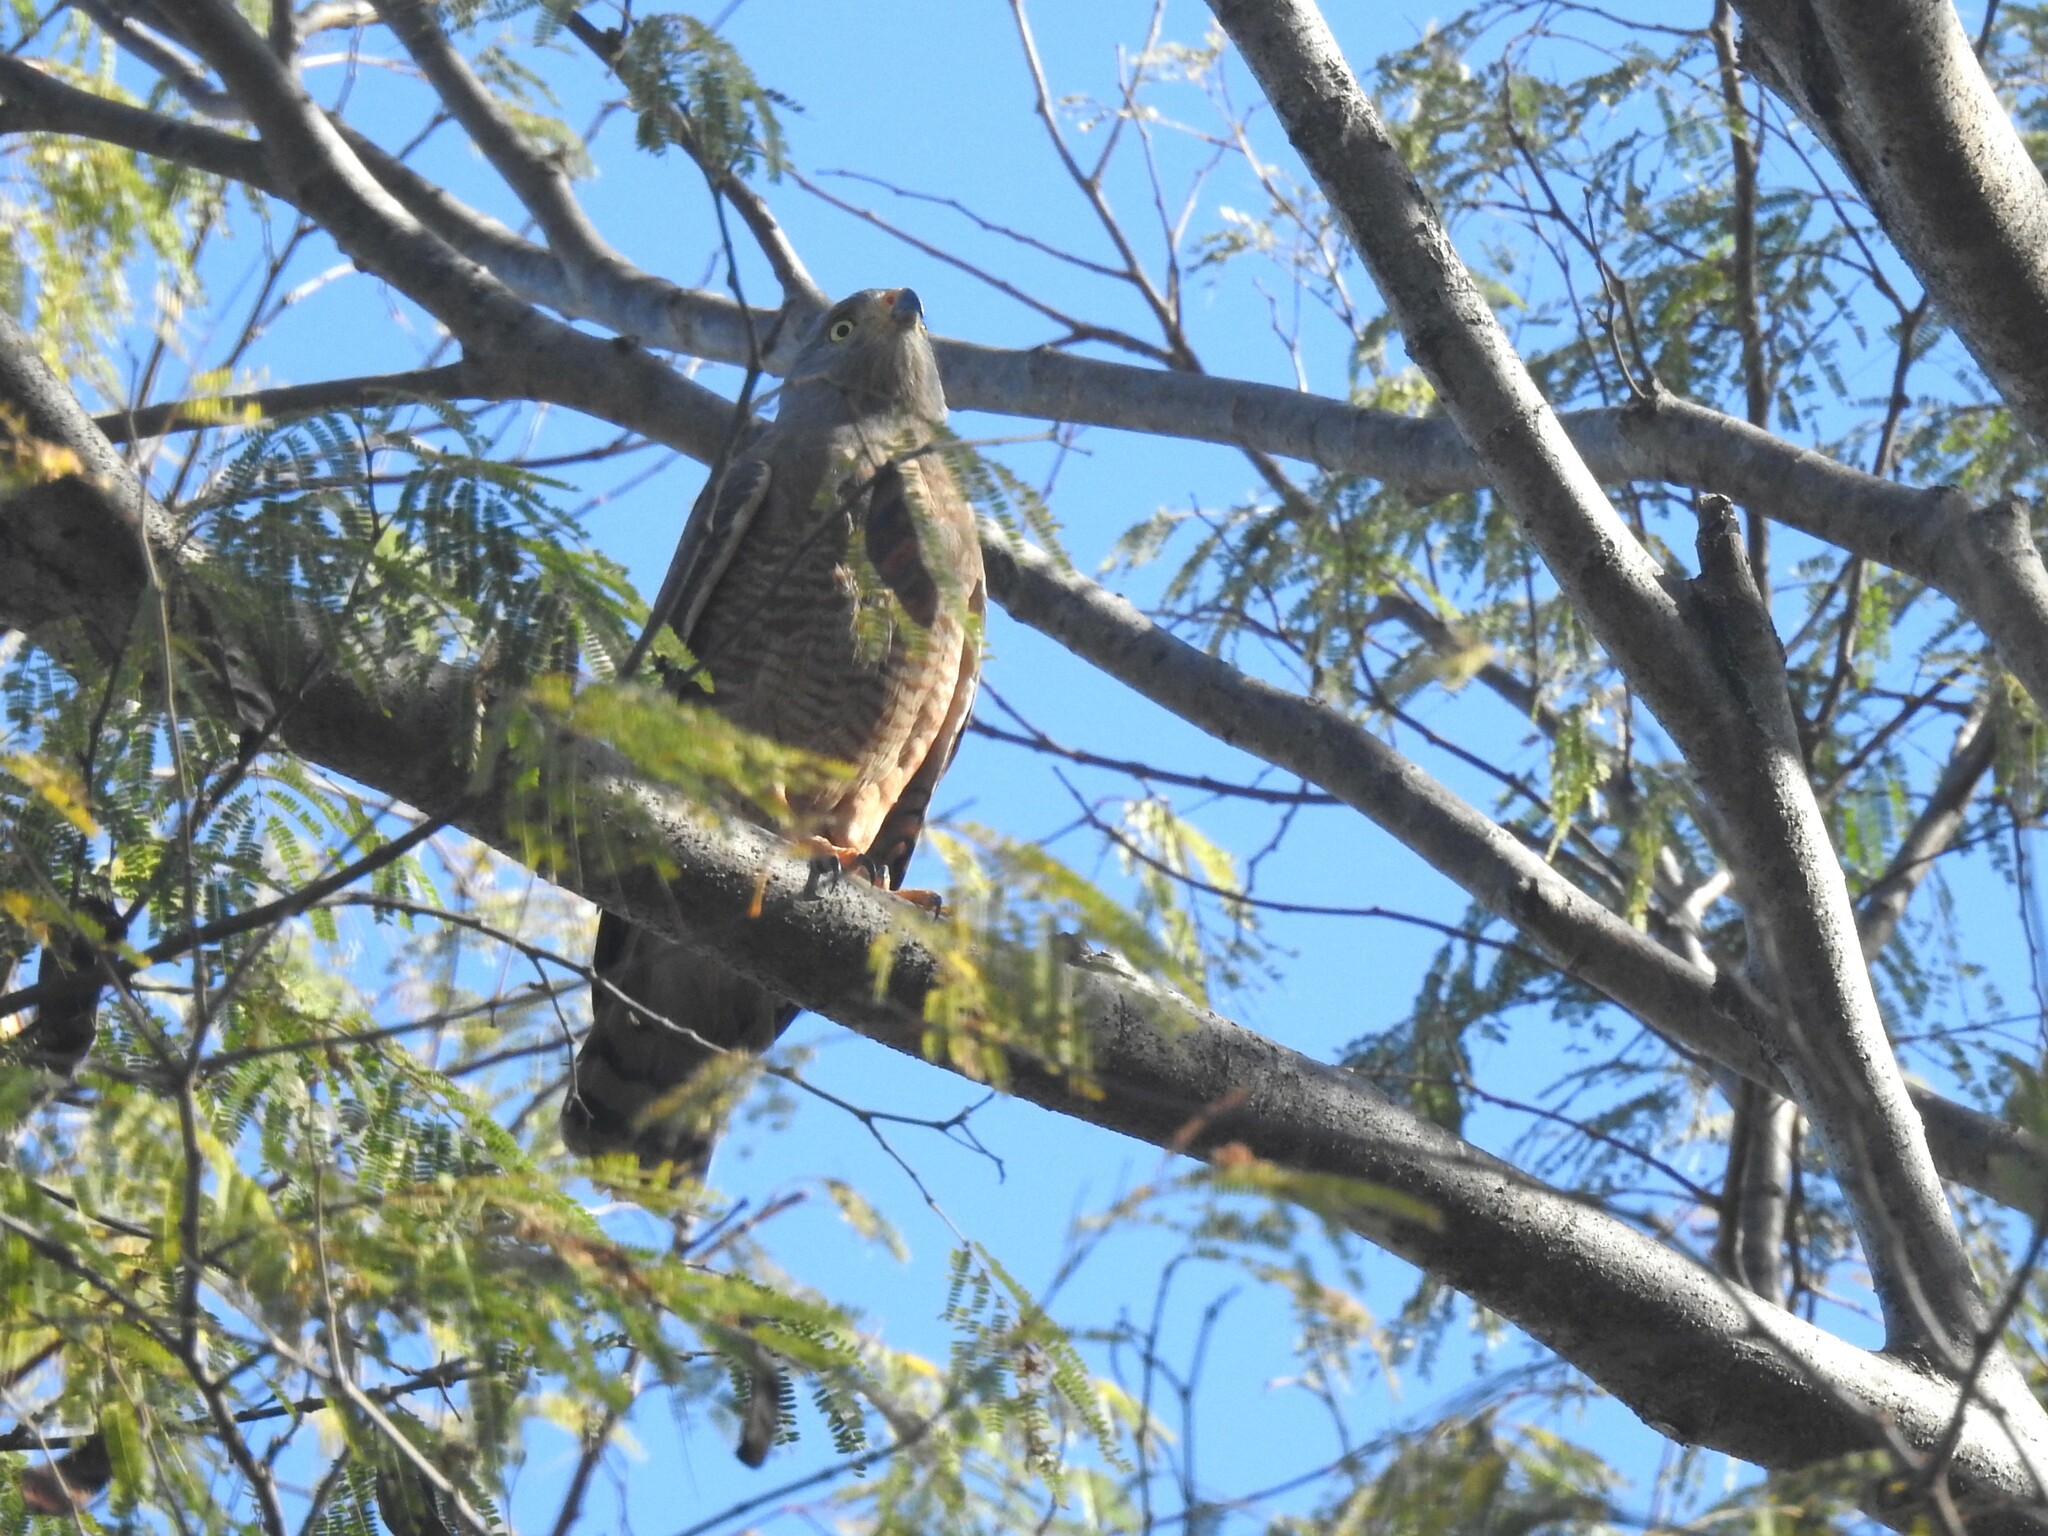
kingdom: Animalia
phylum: Chordata
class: Aves
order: Accipitriformes
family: Accipitridae
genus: Rupornis
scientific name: Rupornis magnirostris
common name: Roadside hawk
